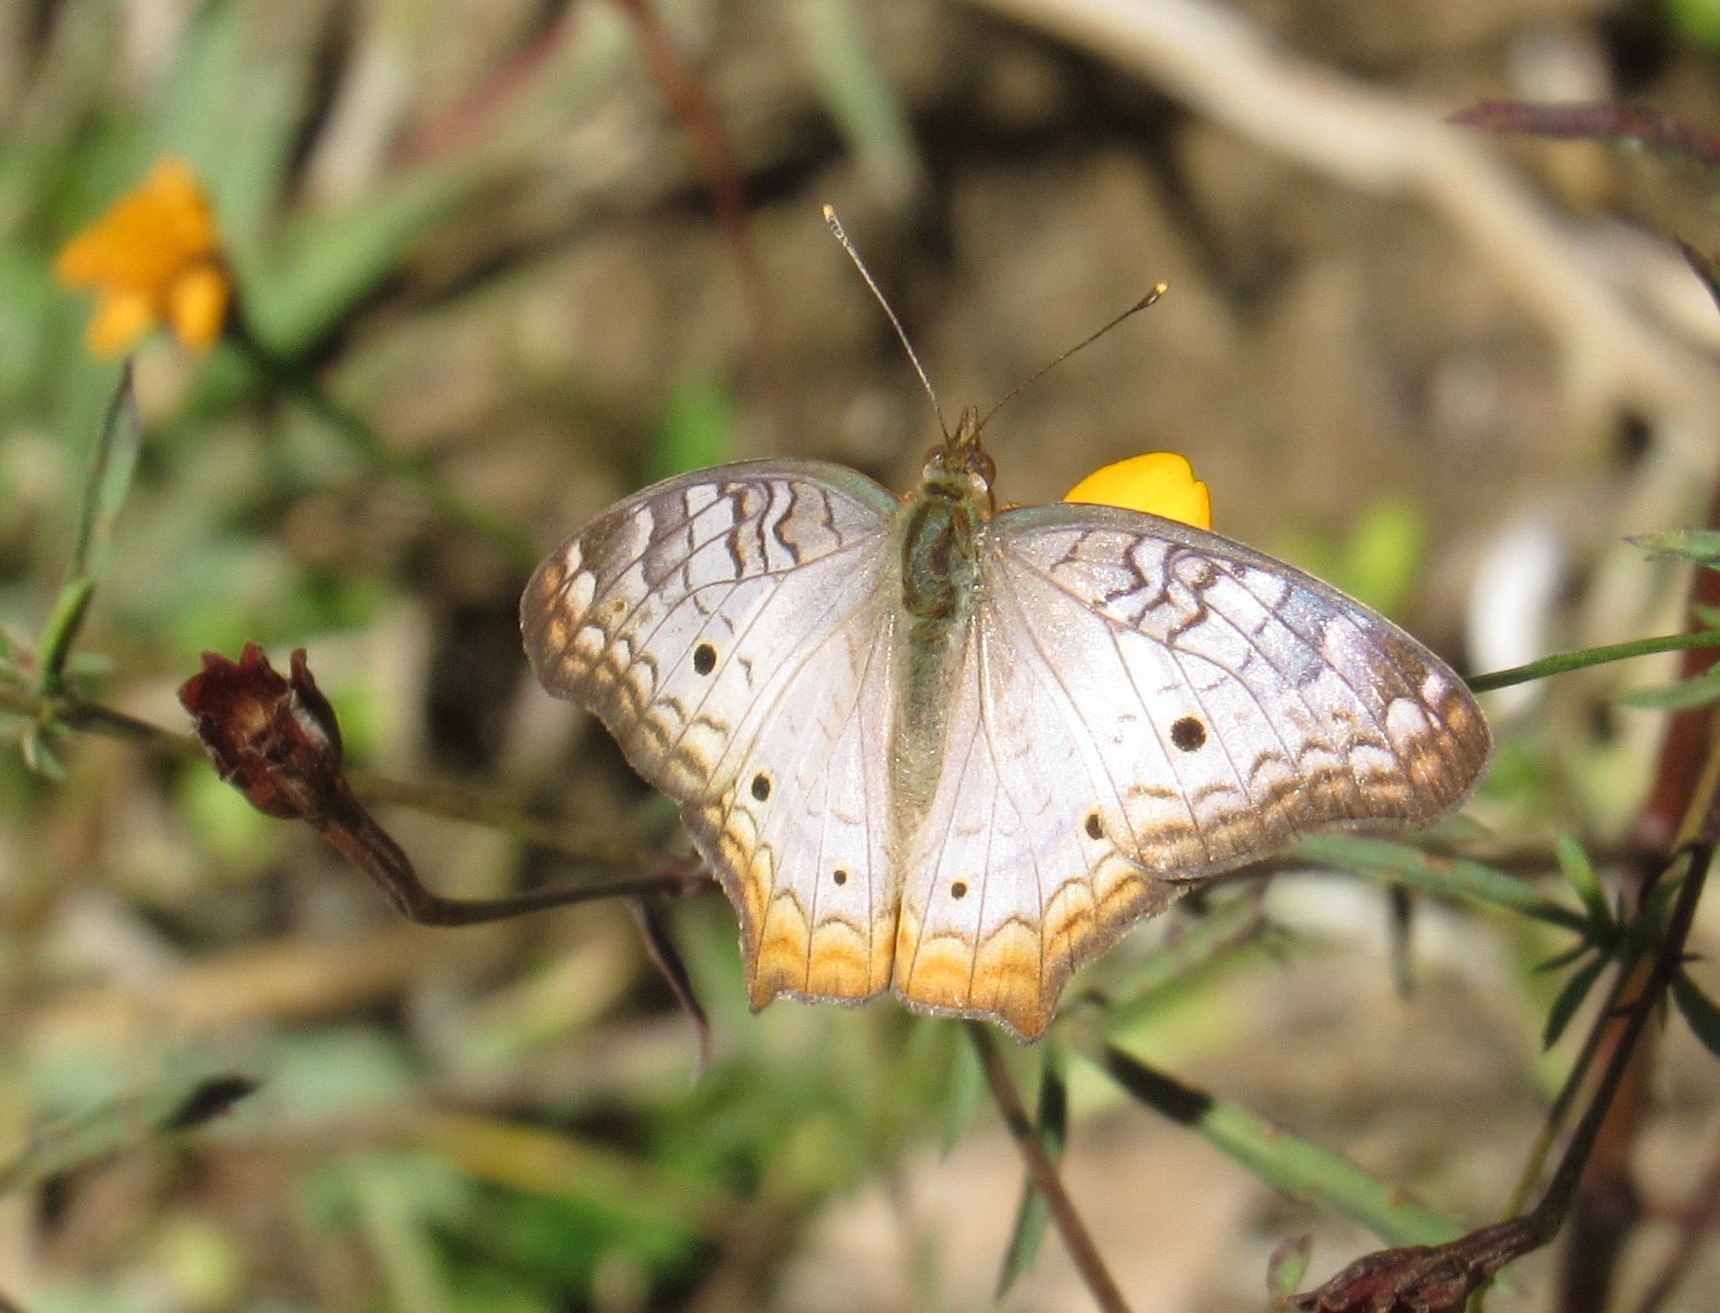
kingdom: Animalia
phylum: Arthropoda
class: Insecta
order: Lepidoptera
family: Nymphalidae
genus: Anartia
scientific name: Anartia jatrophae
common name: White peacock
